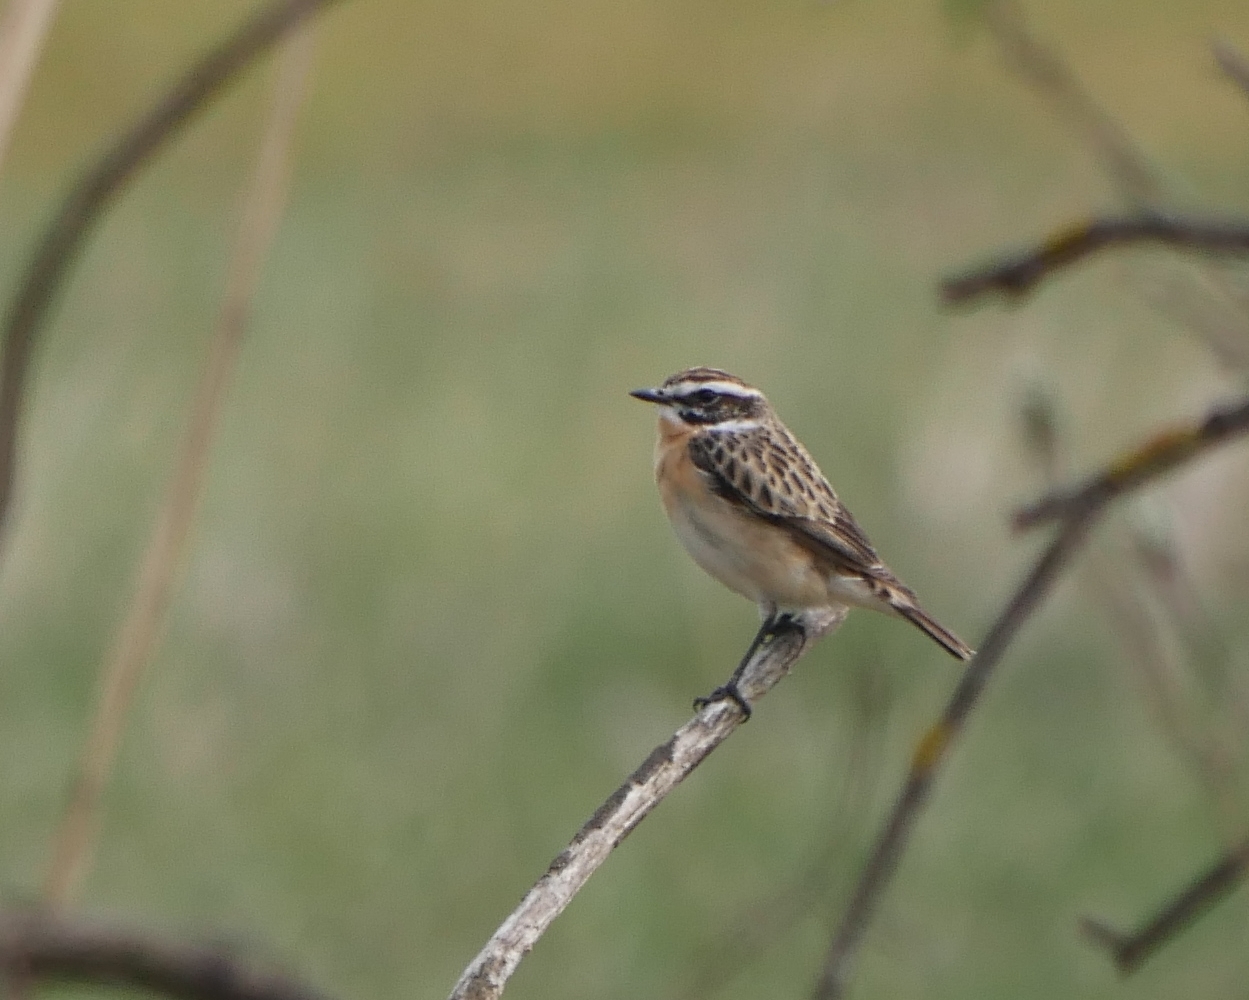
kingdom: Animalia
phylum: Chordata
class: Aves
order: Passeriformes
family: Muscicapidae
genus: Saxicola
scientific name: Saxicola rubetra
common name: Whinchat
